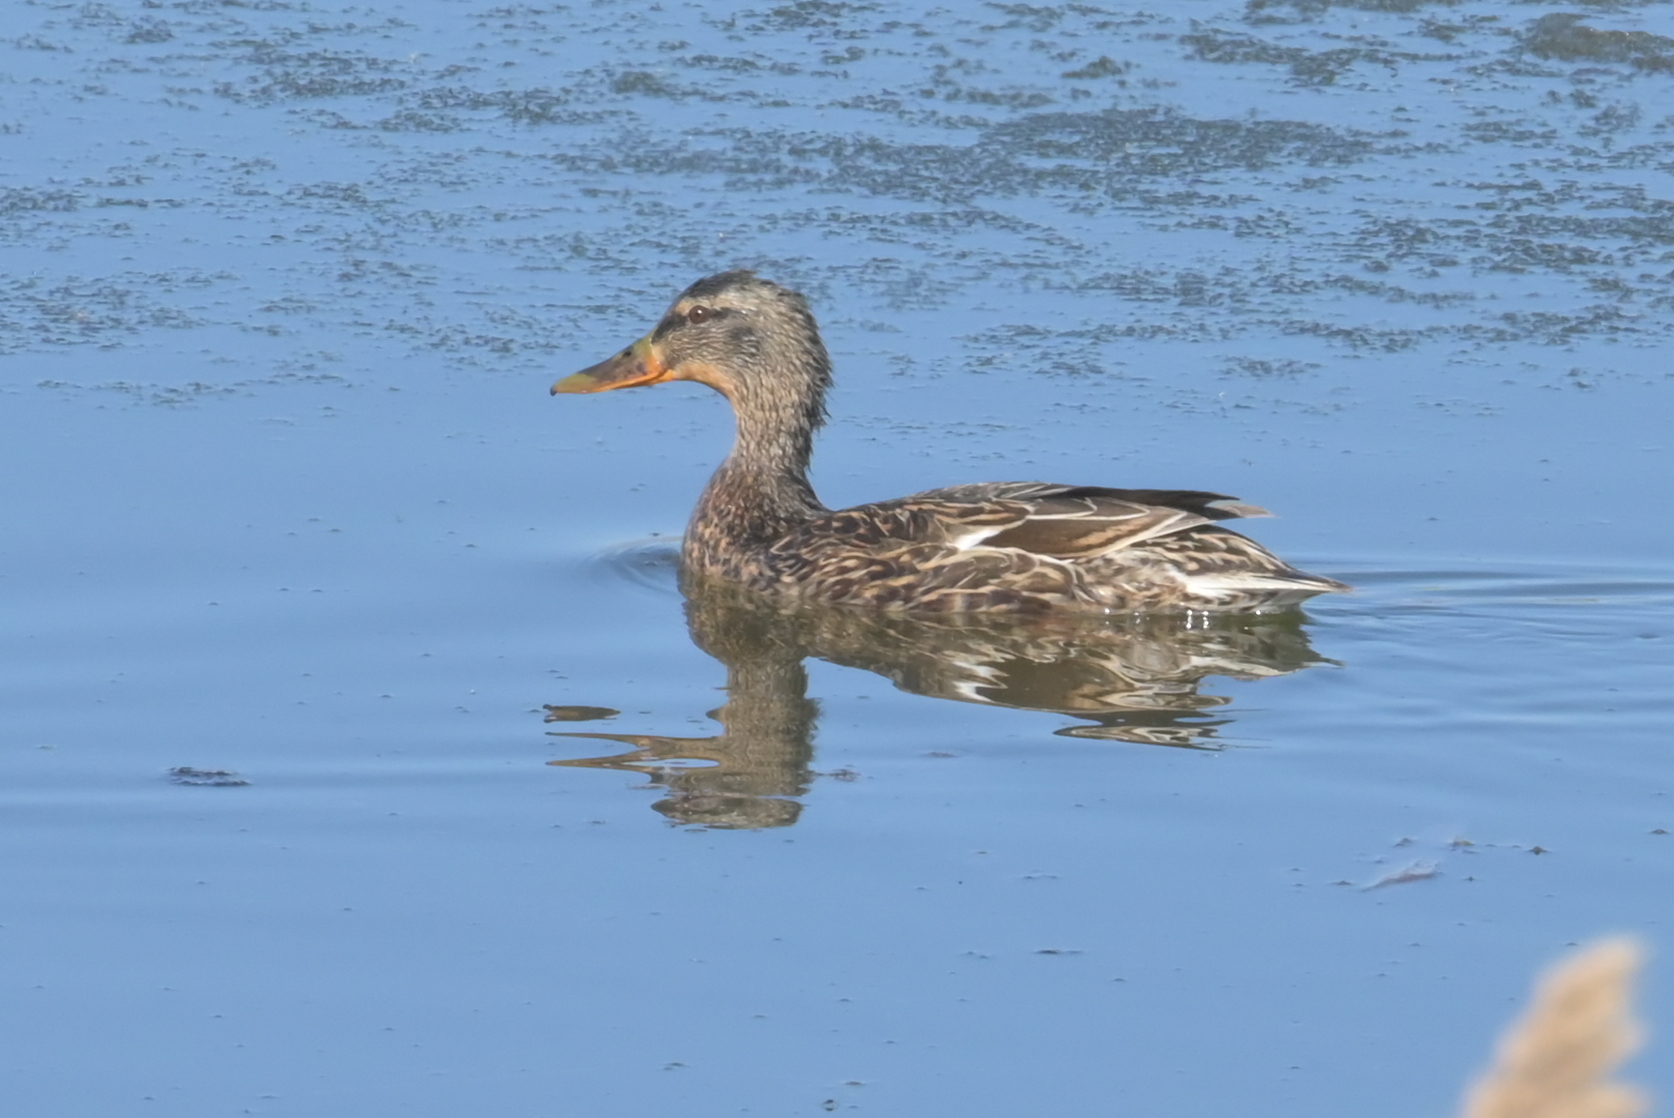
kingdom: Animalia
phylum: Chordata
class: Aves
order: Anseriformes
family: Anatidae
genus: Anas
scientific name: Anas platyrhynchos
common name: Mallard
